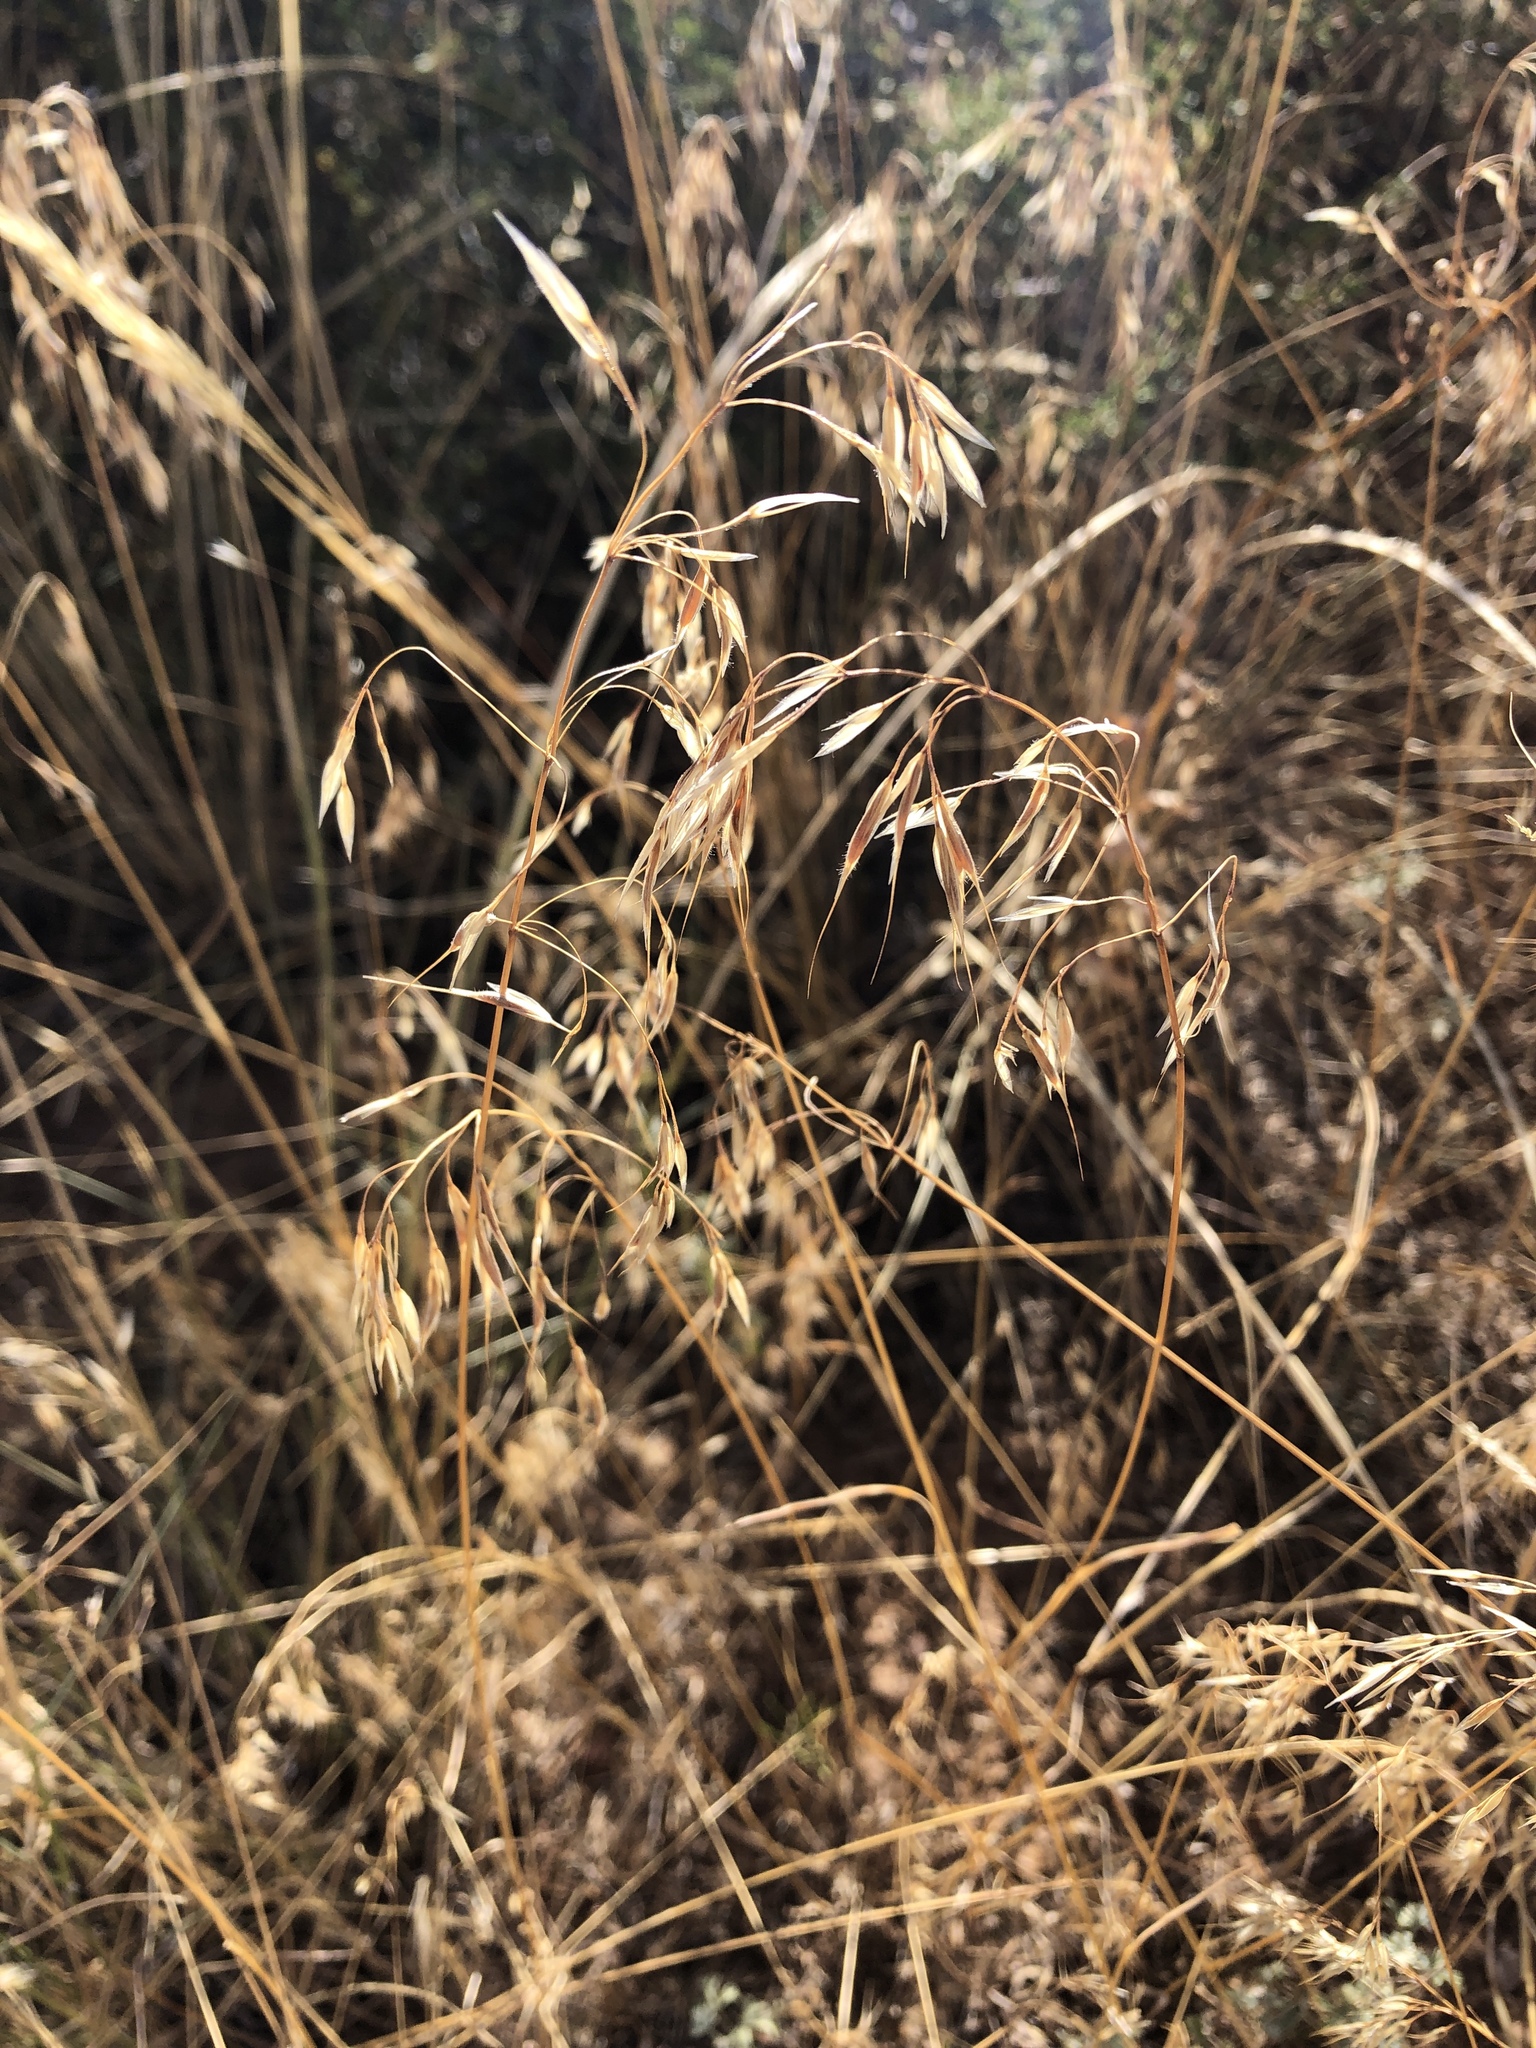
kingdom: Plantae
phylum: Tracheophyta
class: Liliopsida
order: Poales
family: Poaceae
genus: Bromus
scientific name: Bromus tectorum
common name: Cheatgrass
